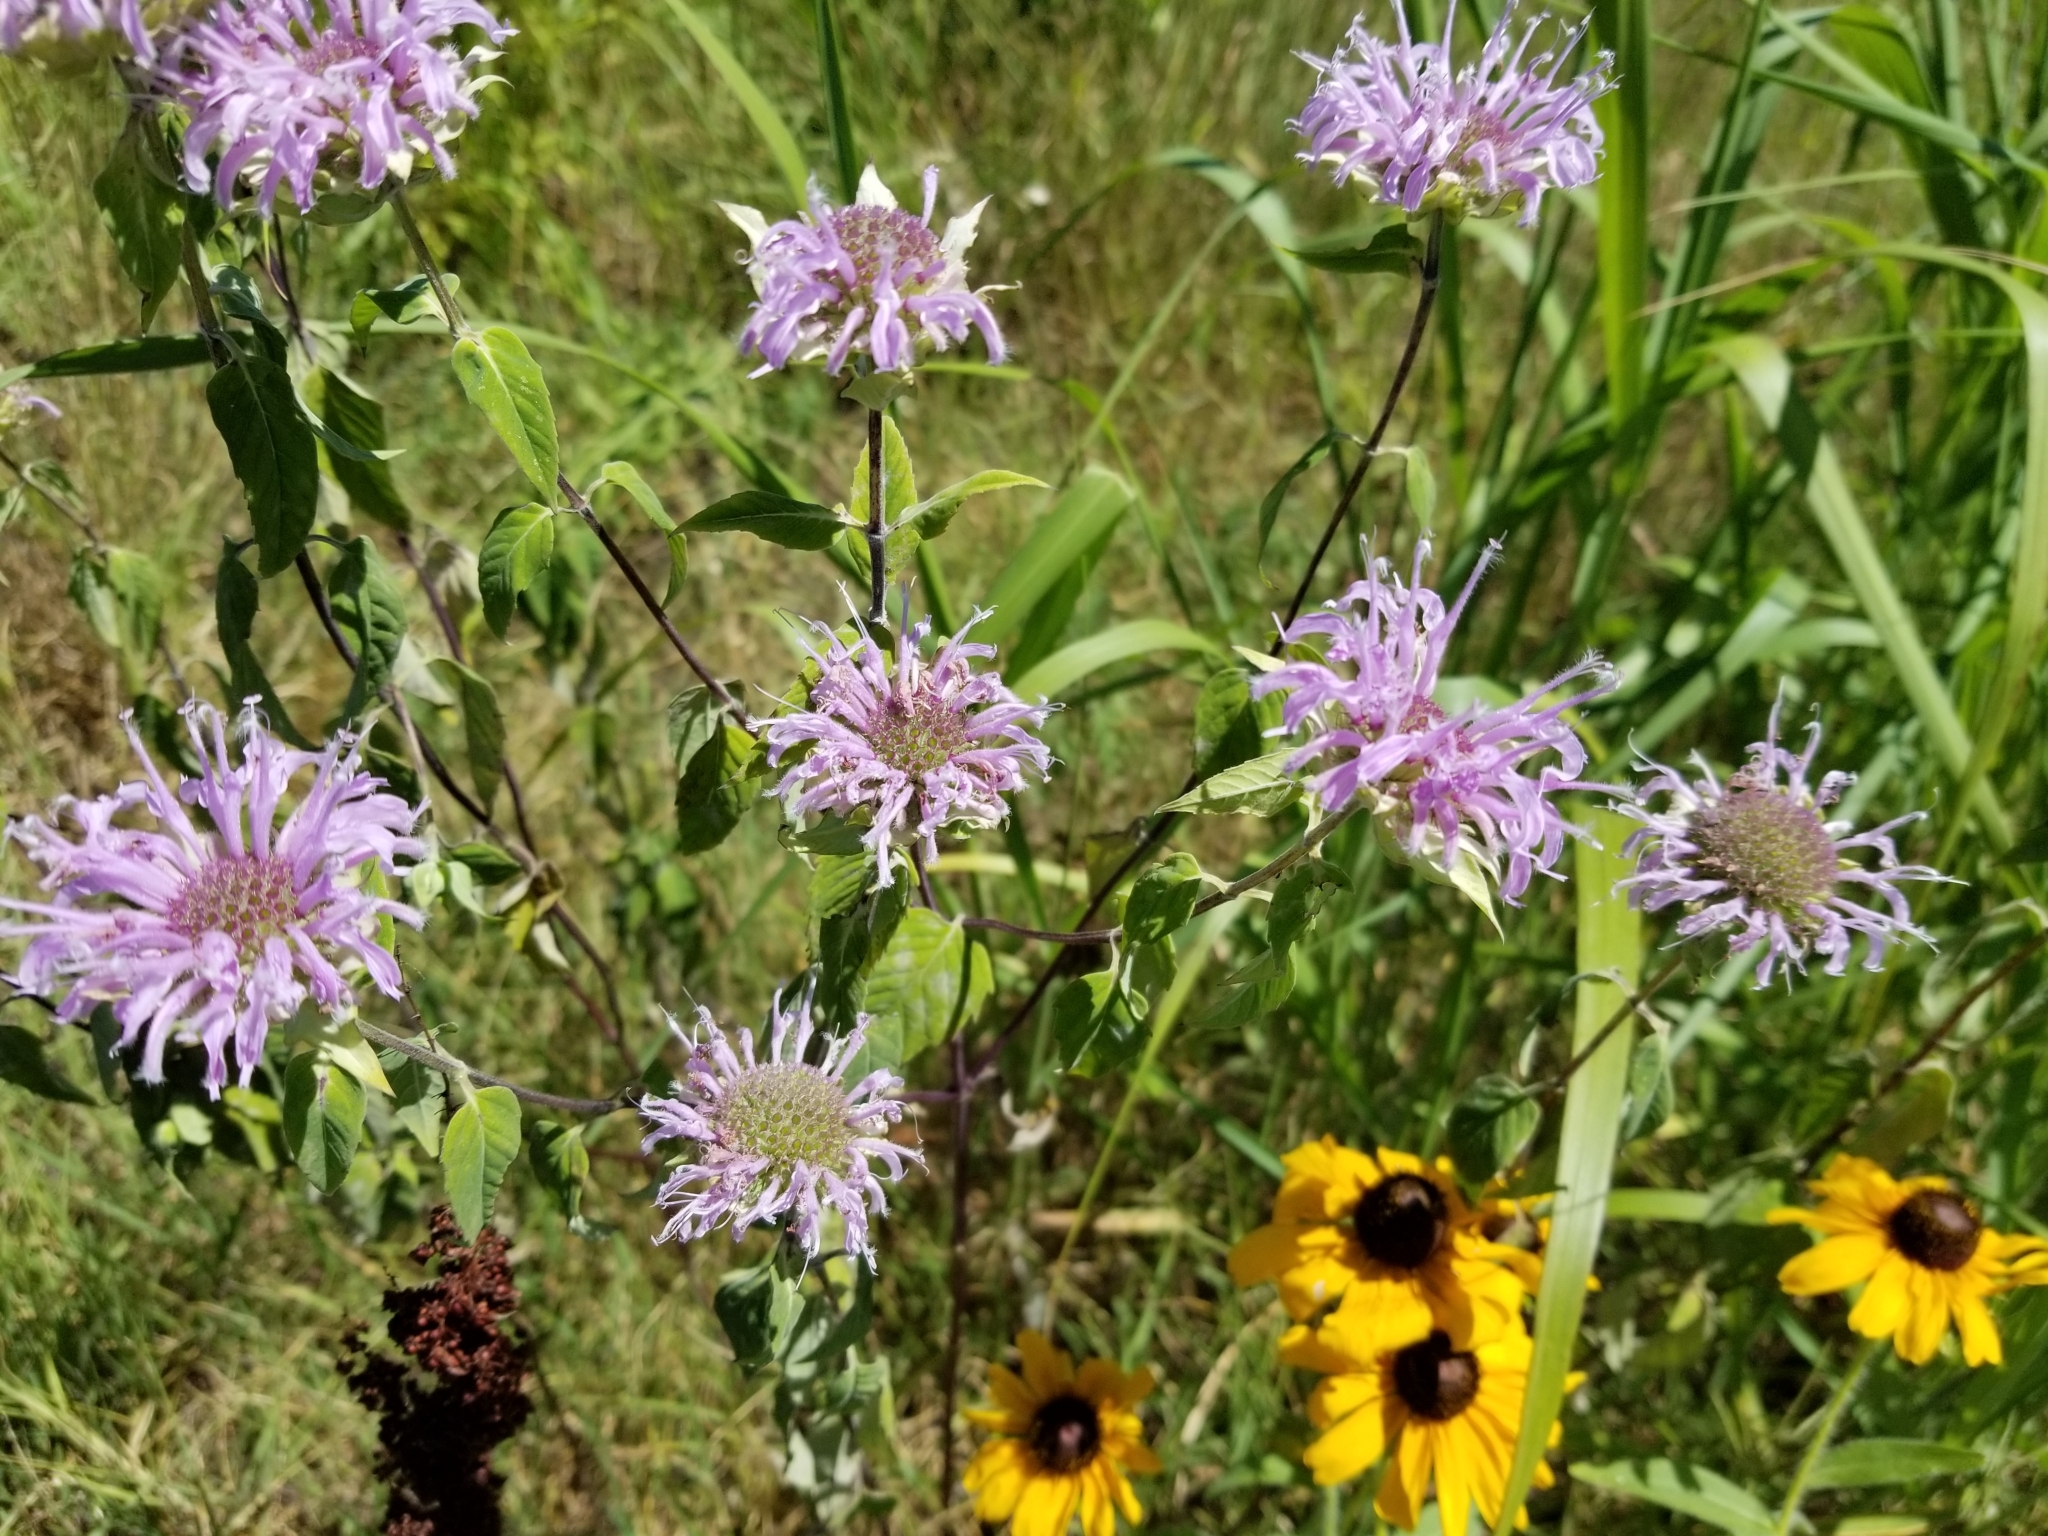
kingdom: Plantae
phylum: Tracheophyta
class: Magnoliopsida
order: Lamiales
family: Lamiaceae
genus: Monarda
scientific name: Monarda fistulosa
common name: Purple beebalm
